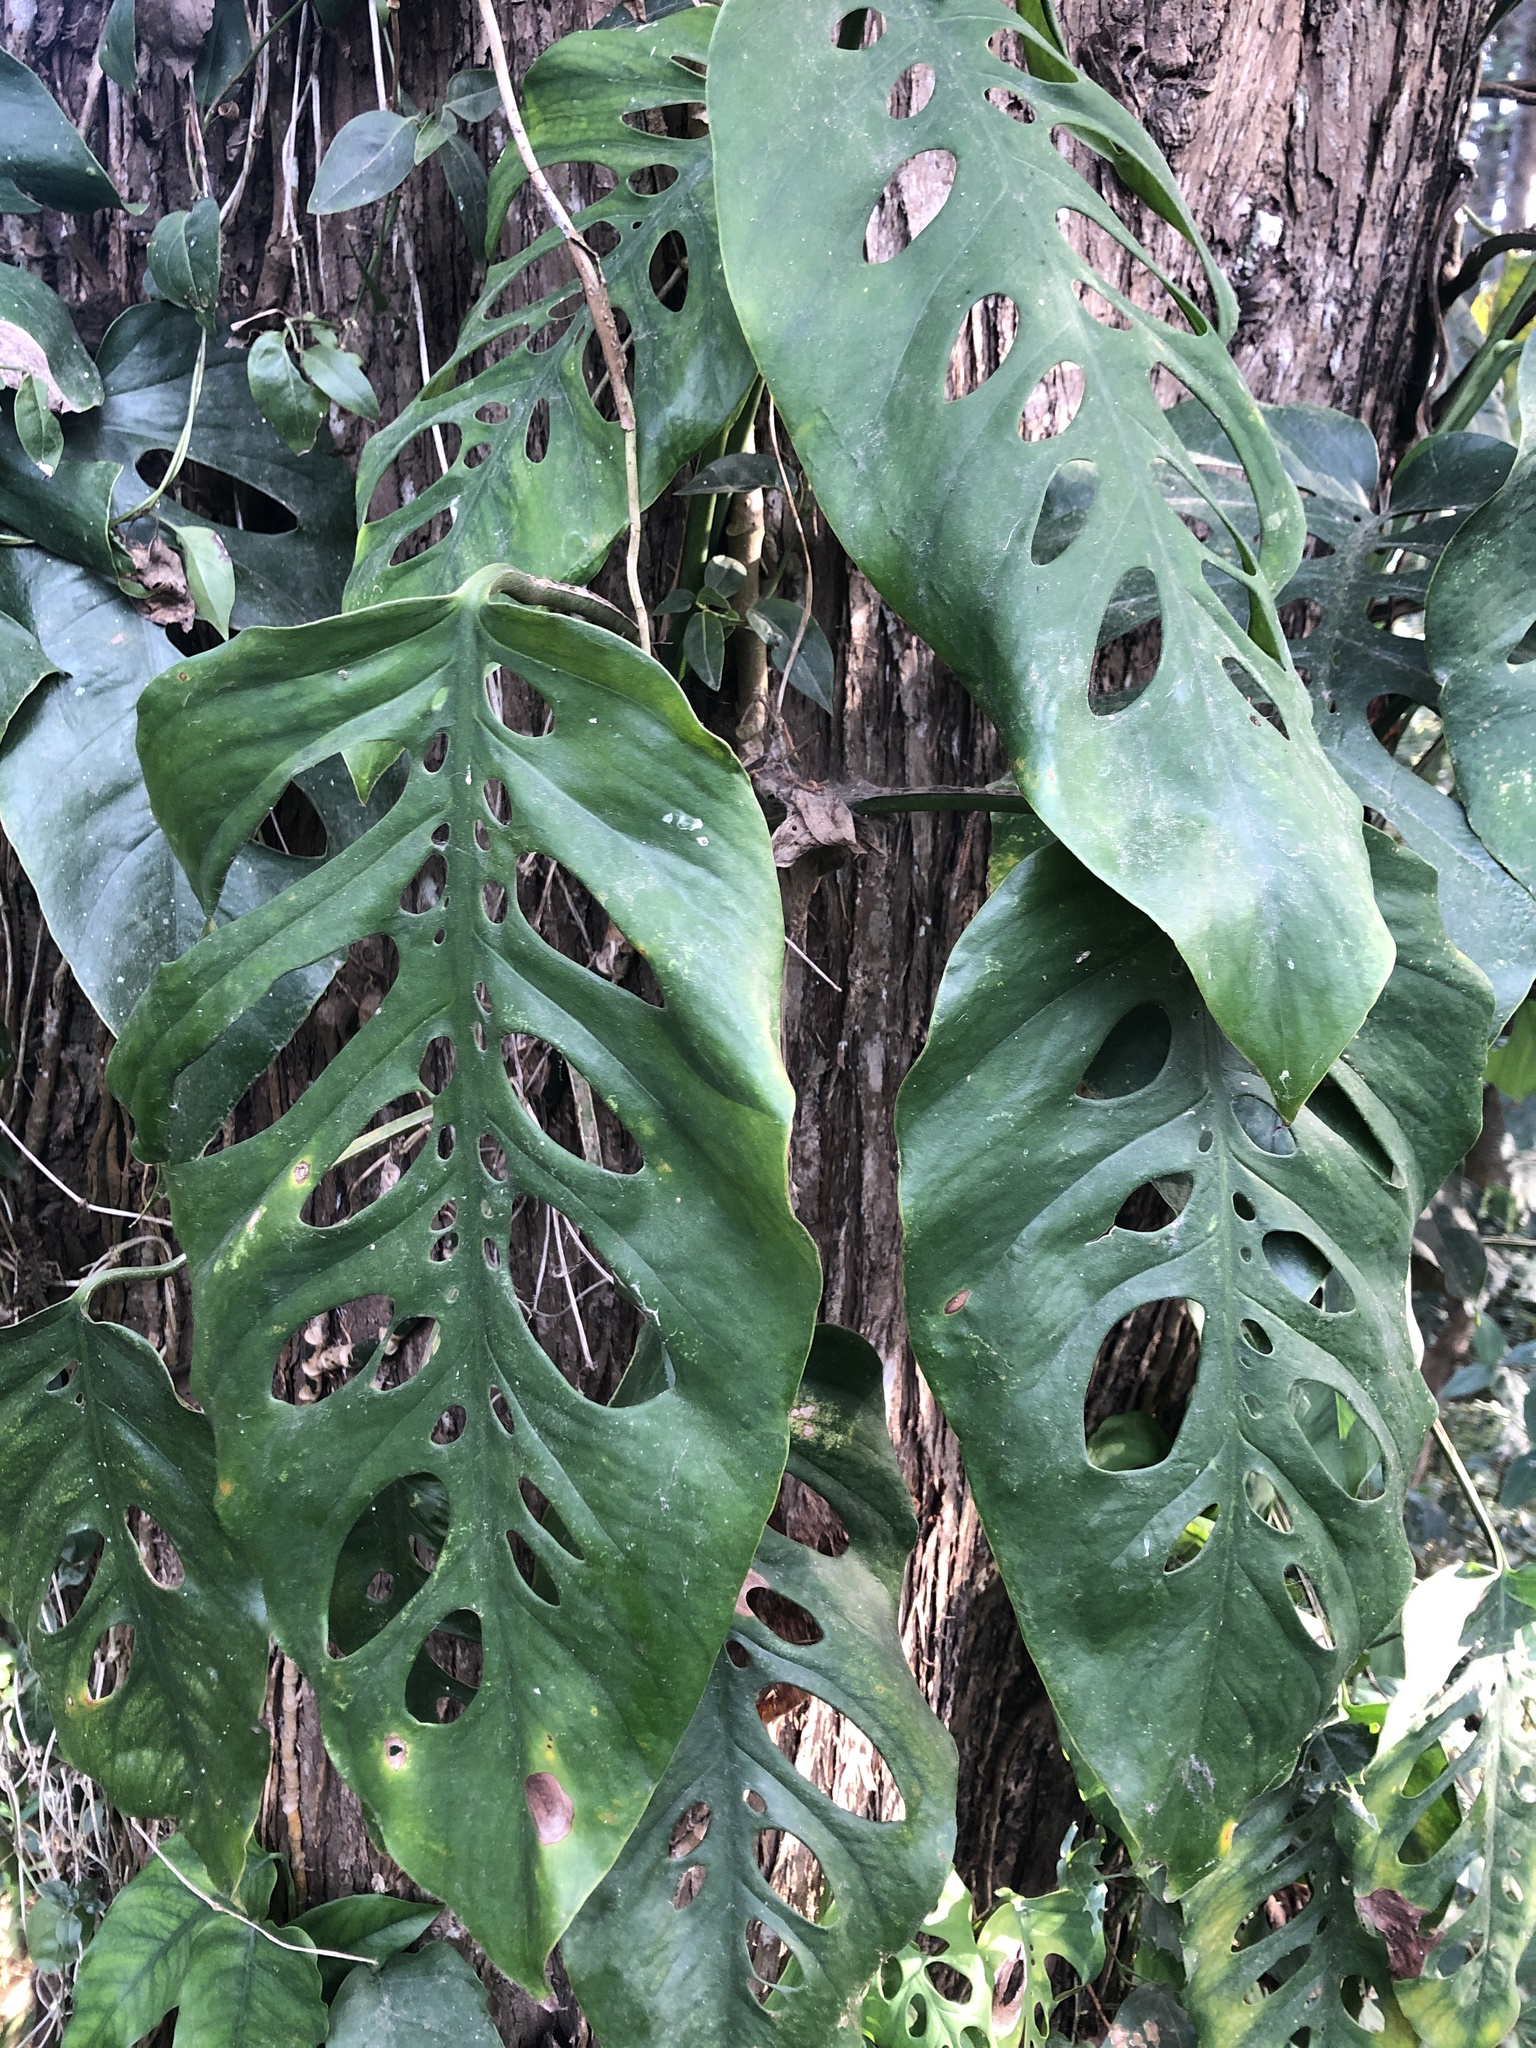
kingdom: Plantae
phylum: Tracheophyta
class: Liliopsida
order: Alismatales
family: Araceae
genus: Monstera
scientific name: Monstera siltepecana
